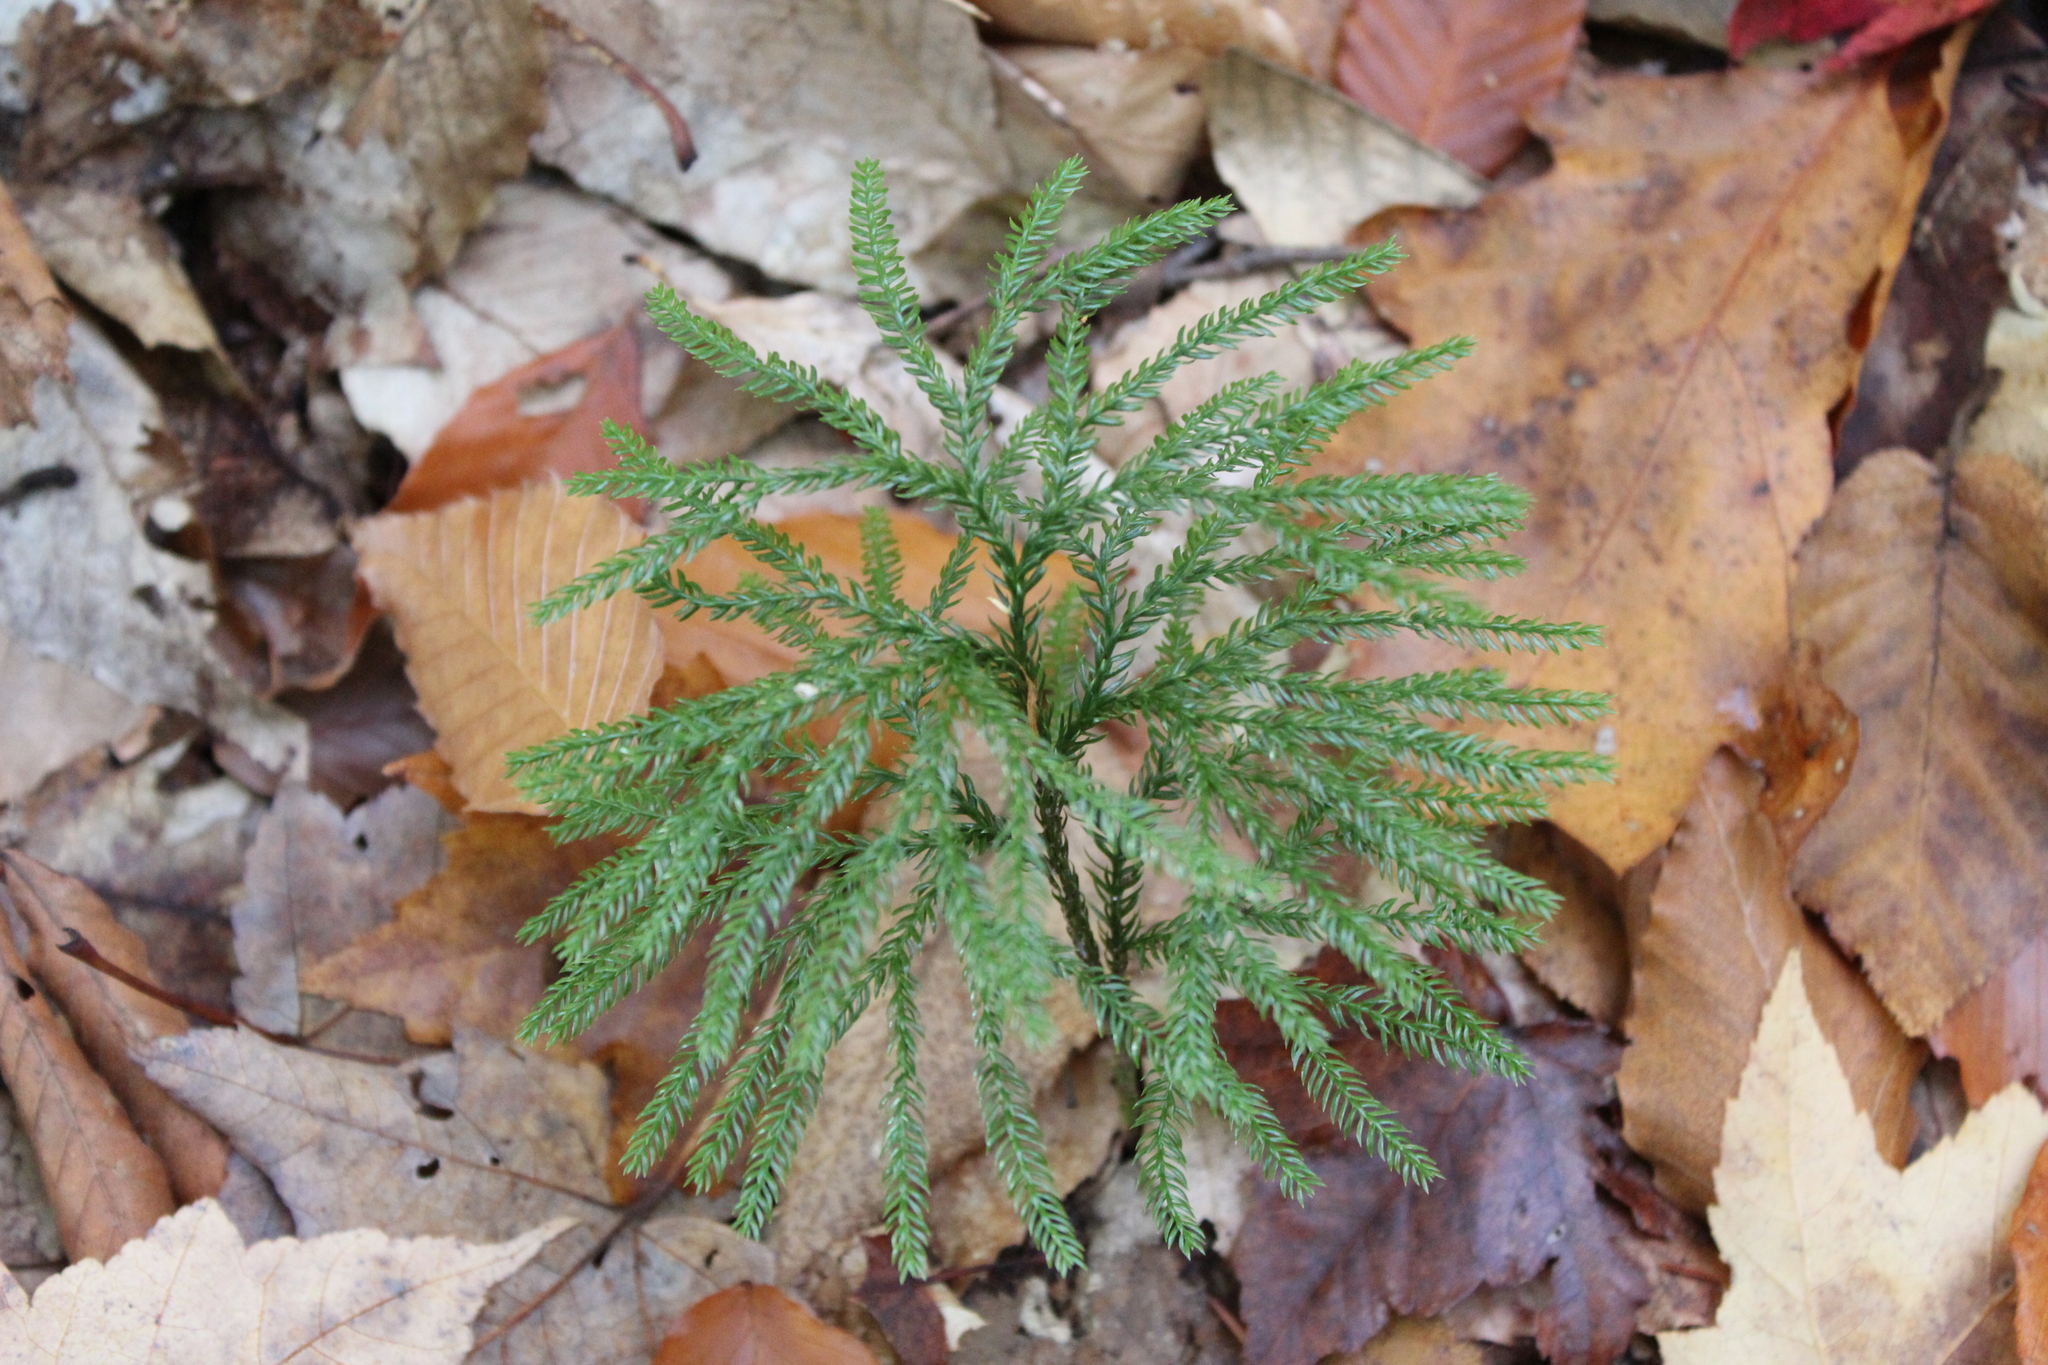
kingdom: Plantae
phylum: Tracheophyta
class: Lycopodiopsida
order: Lycopodiales
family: Lycopodiaceae
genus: Dendrolycopodium
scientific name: Dendrolycopodium obscurum
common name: Common ground-pine
